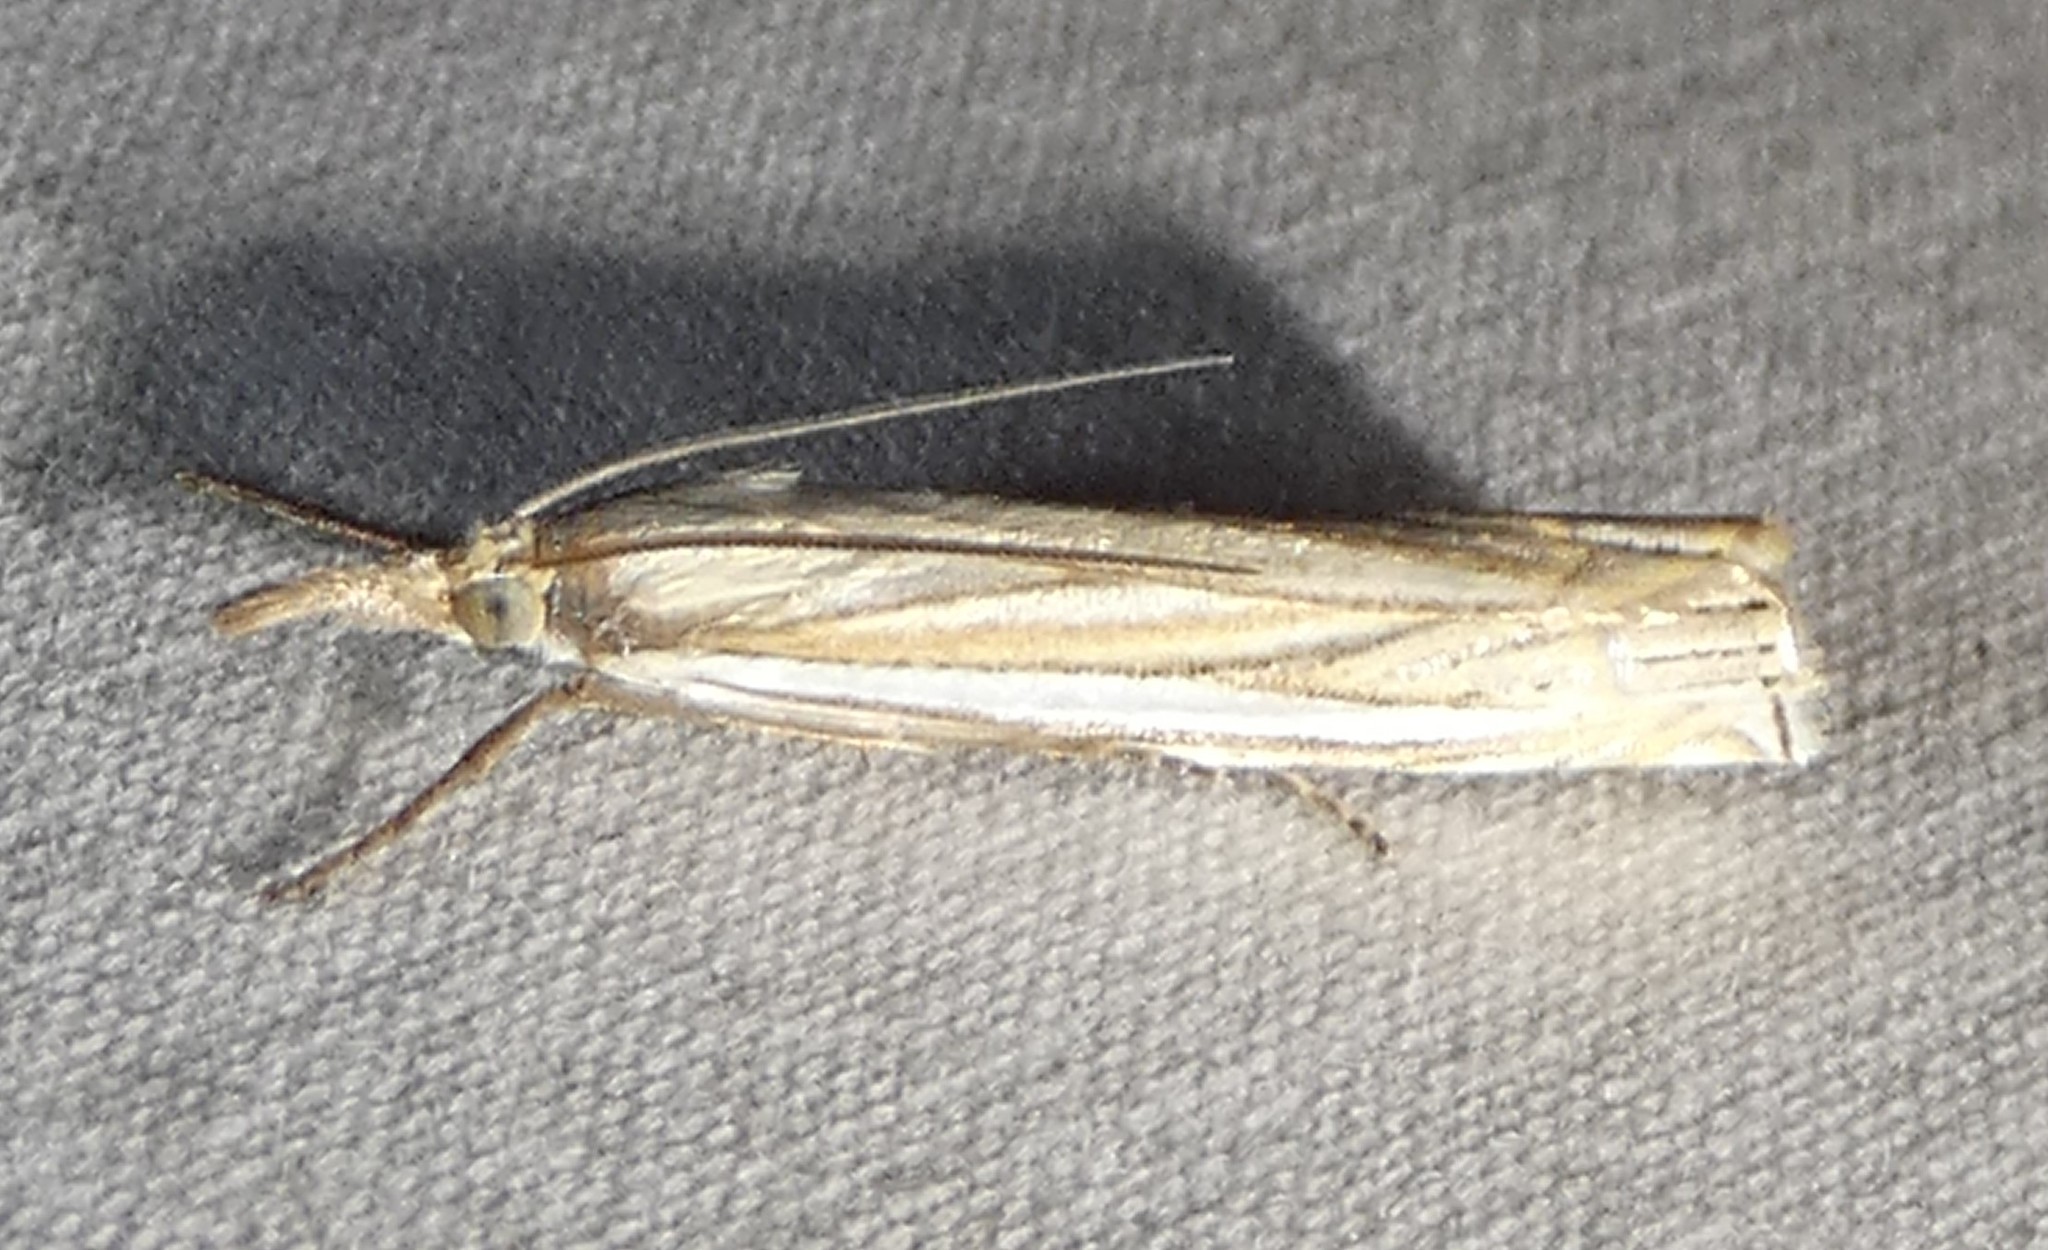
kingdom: Animalia
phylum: Arthropoda
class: Insecta
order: Lepidoptera
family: Crambidae
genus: Crambus
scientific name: Crambus laqueatellus
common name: Eastern grass-veneer
